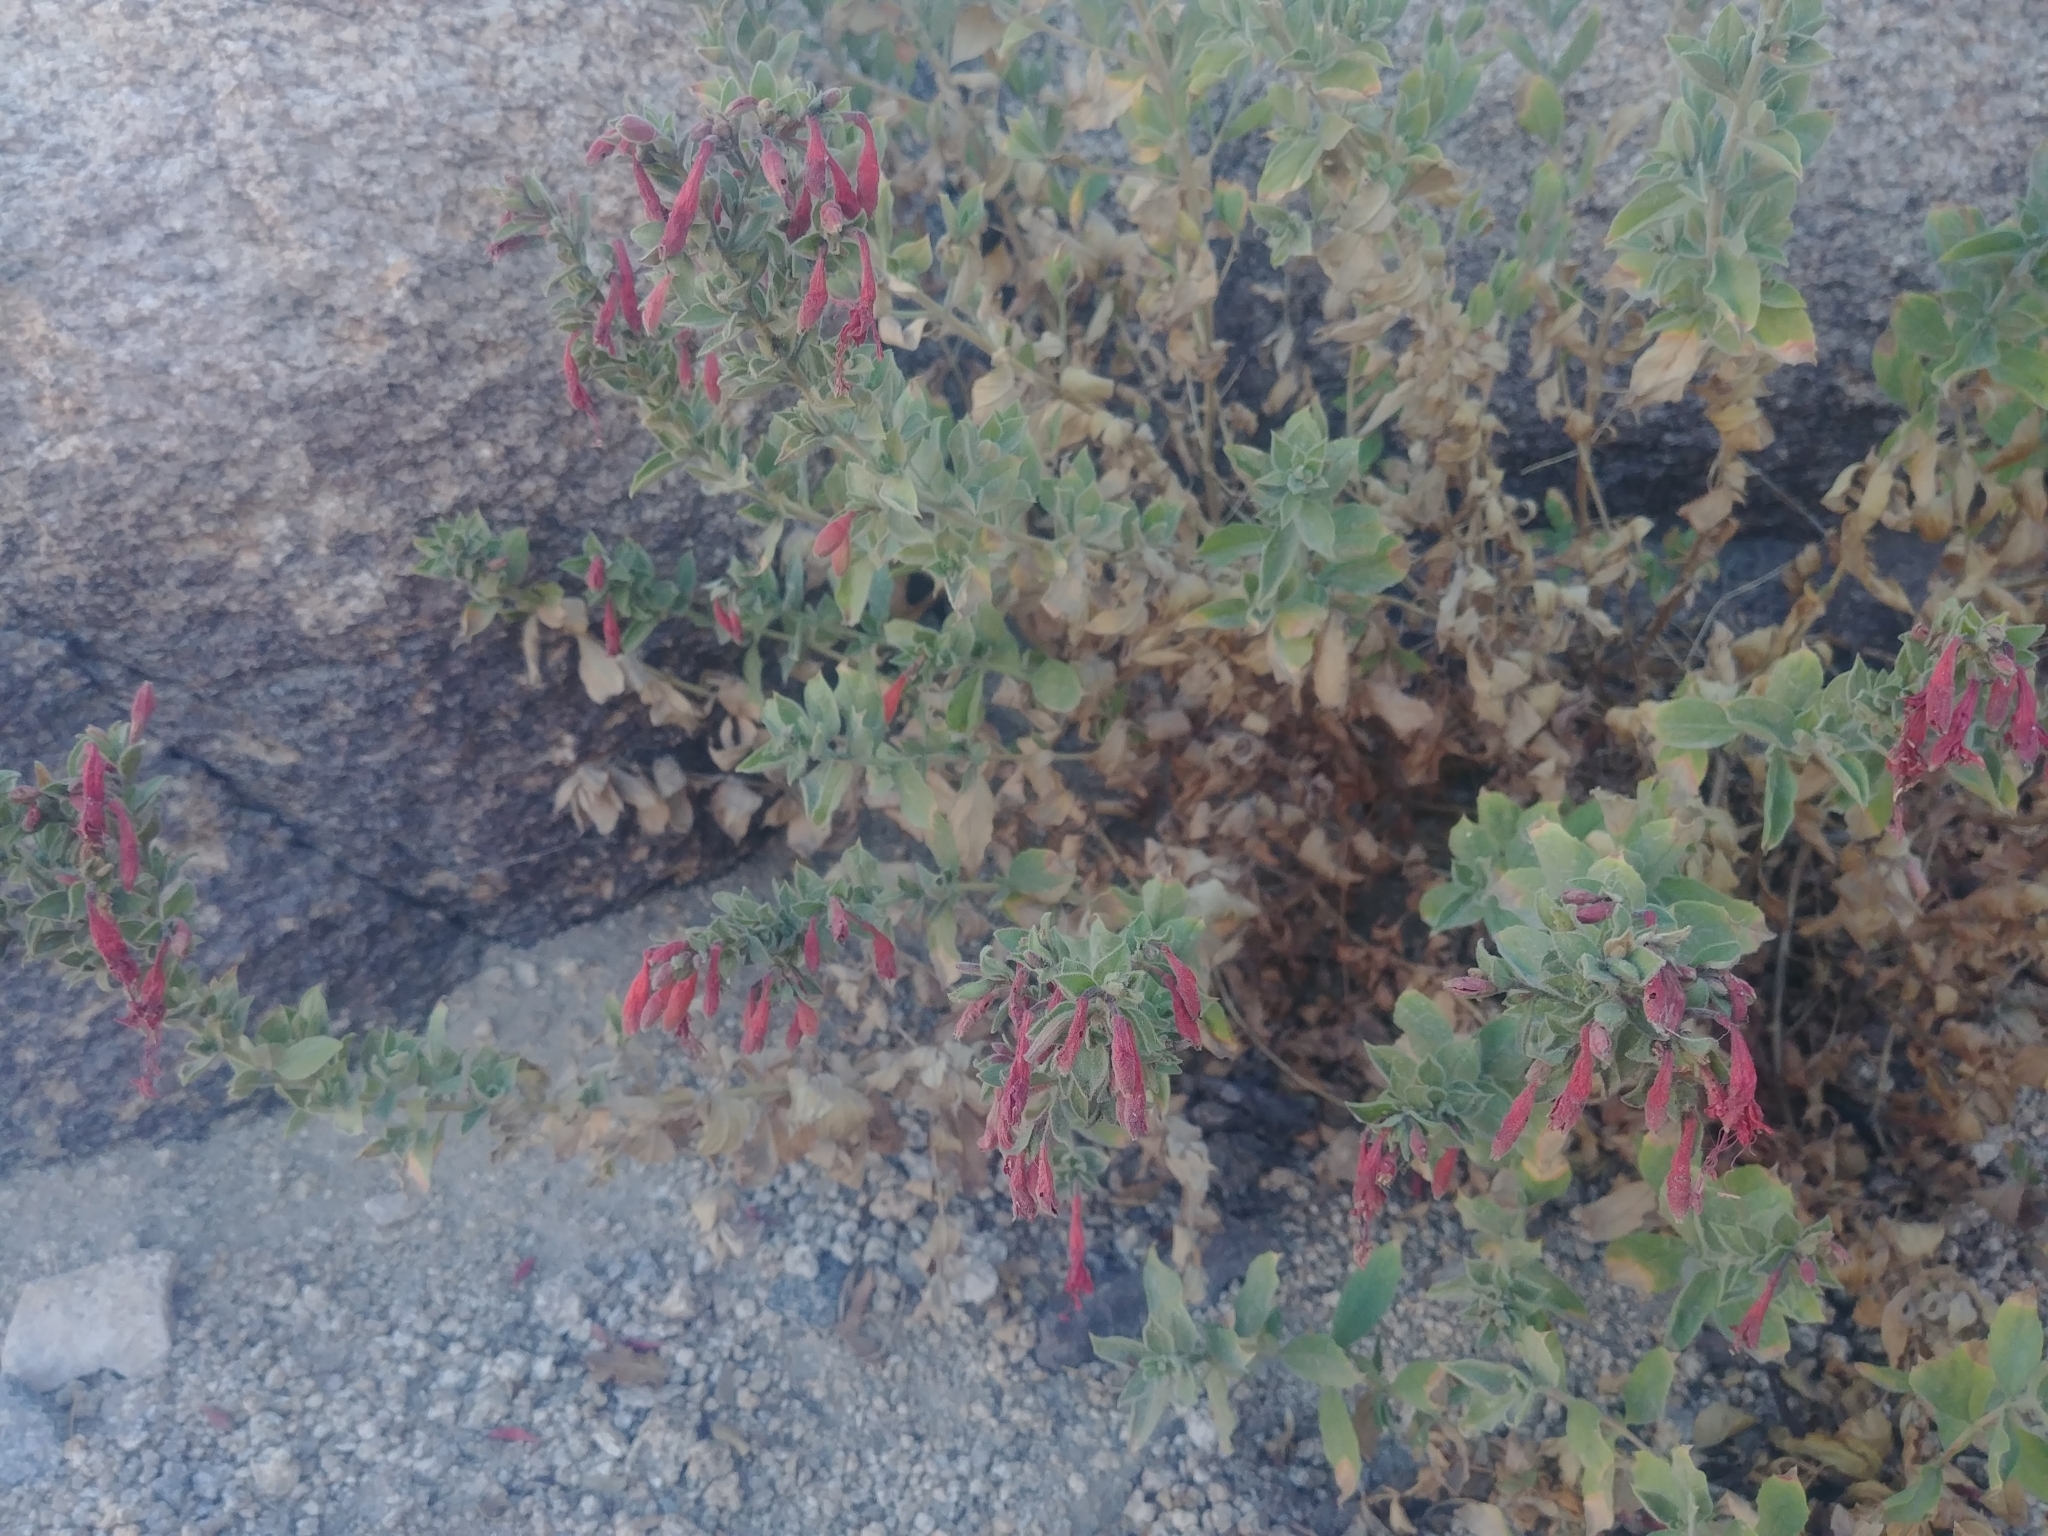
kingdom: Plantae
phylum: Tracheophyta
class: Magnoliopsida
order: Myrtales
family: Onagraceae
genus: Epilobium
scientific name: Epilobium canum
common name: California-fuchsia
